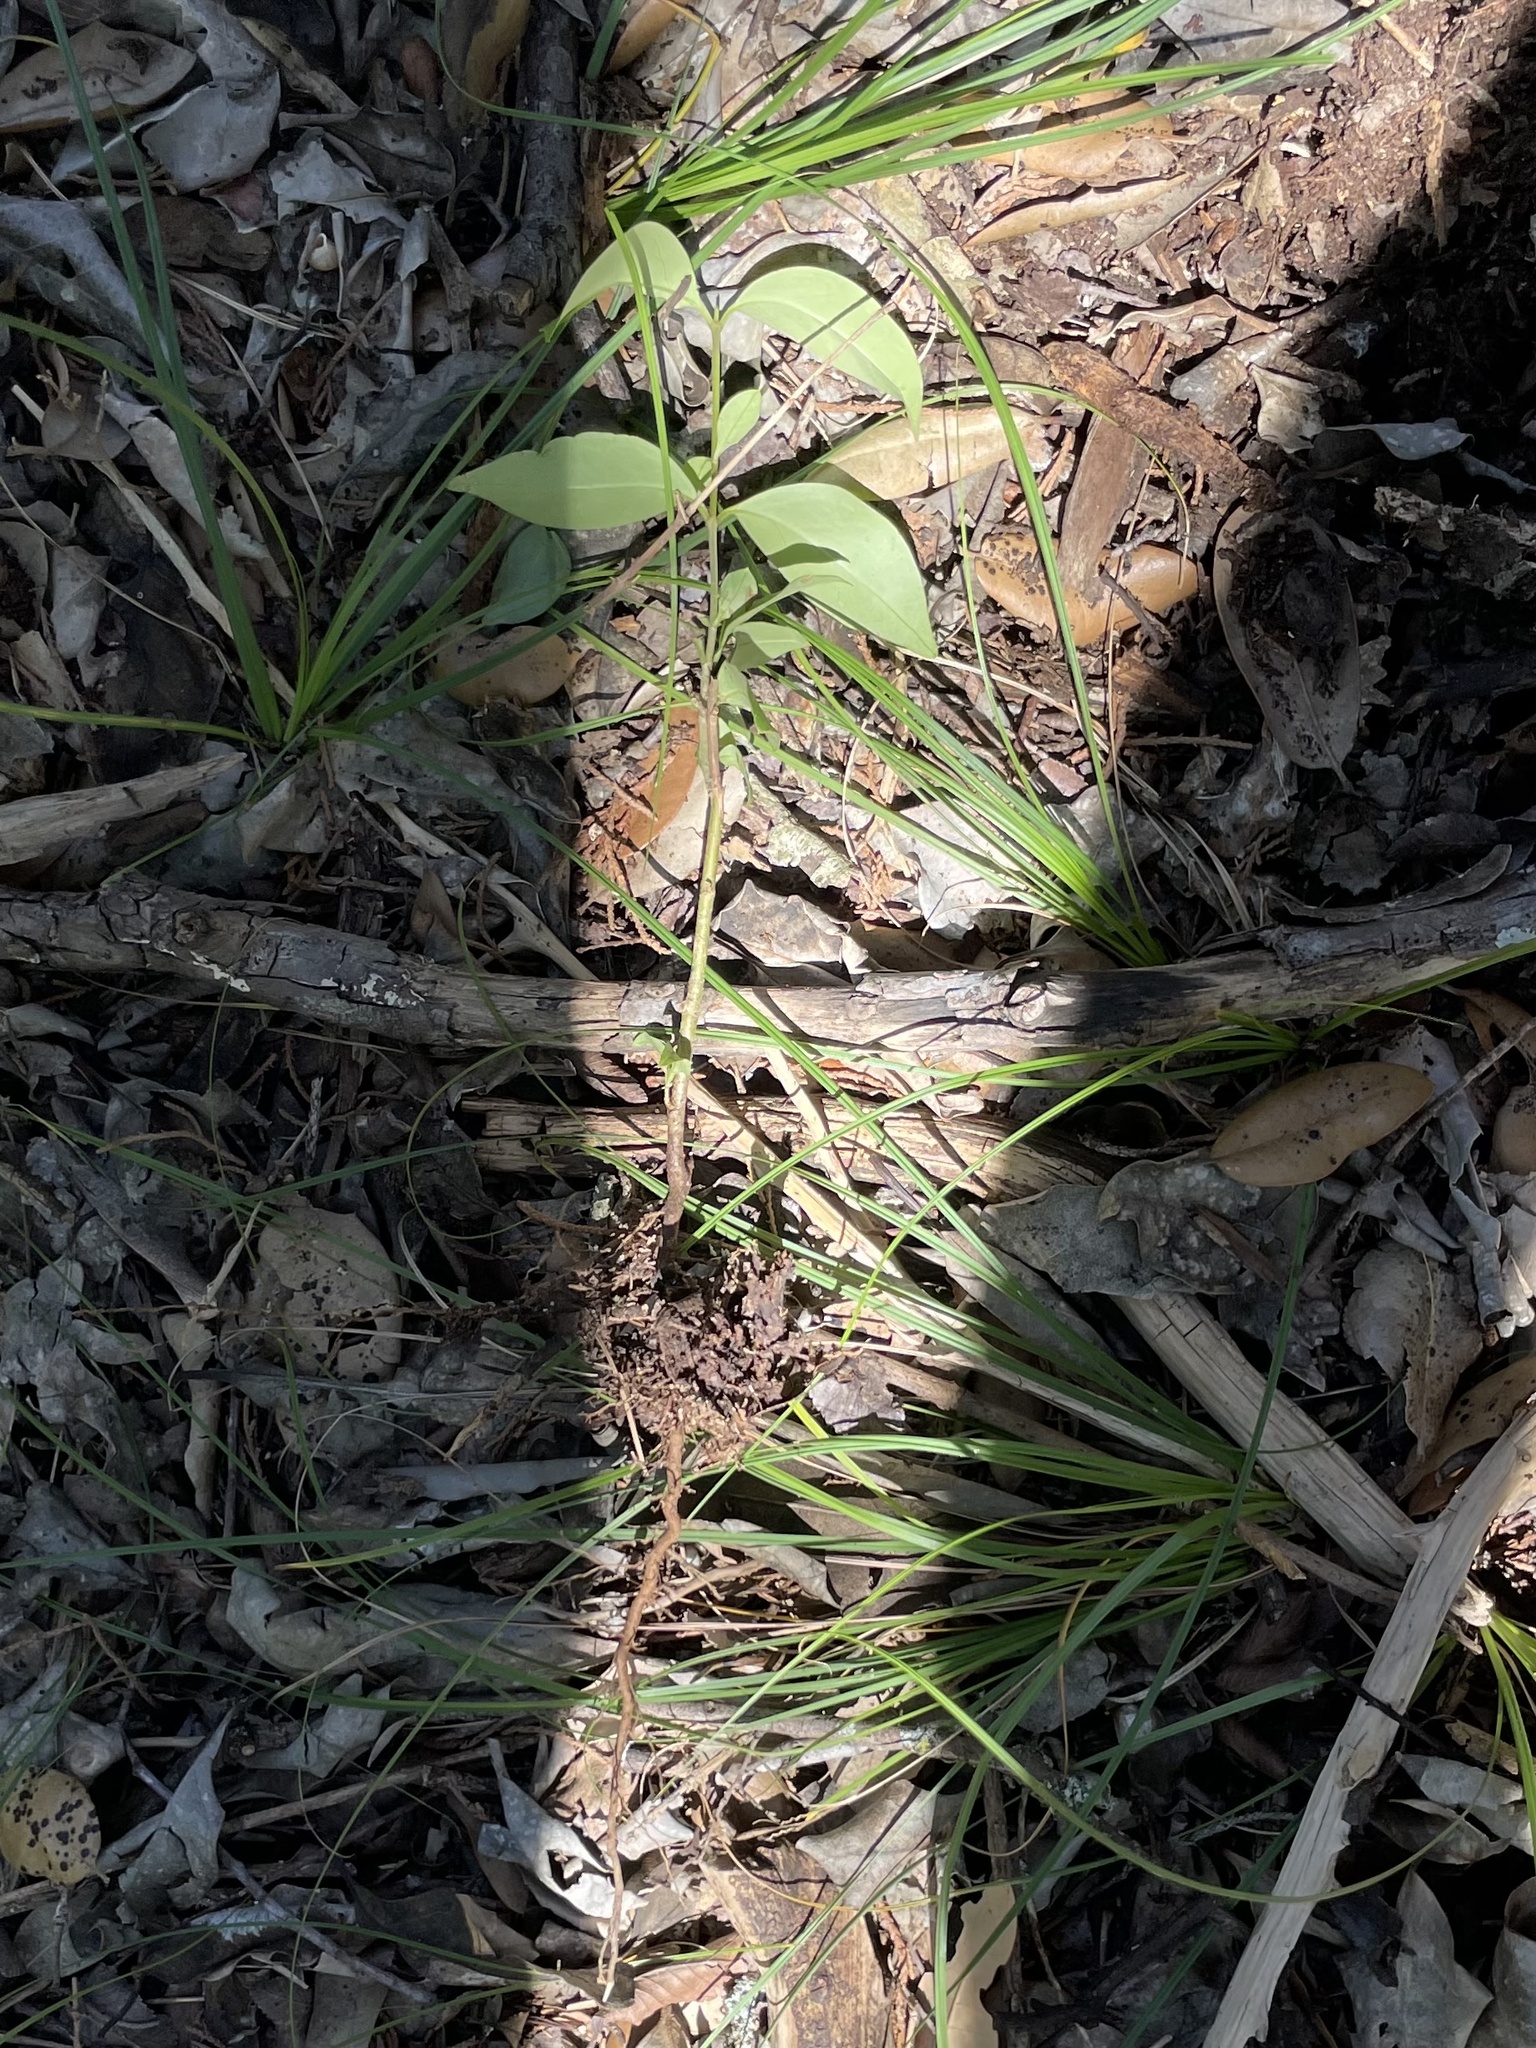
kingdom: Plantae
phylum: Tracheophyta
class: Magnoliopsida
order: Lamiales
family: Oleaceae
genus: Ligustrum
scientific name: Ligustrum lucidum
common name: Glossy privet
